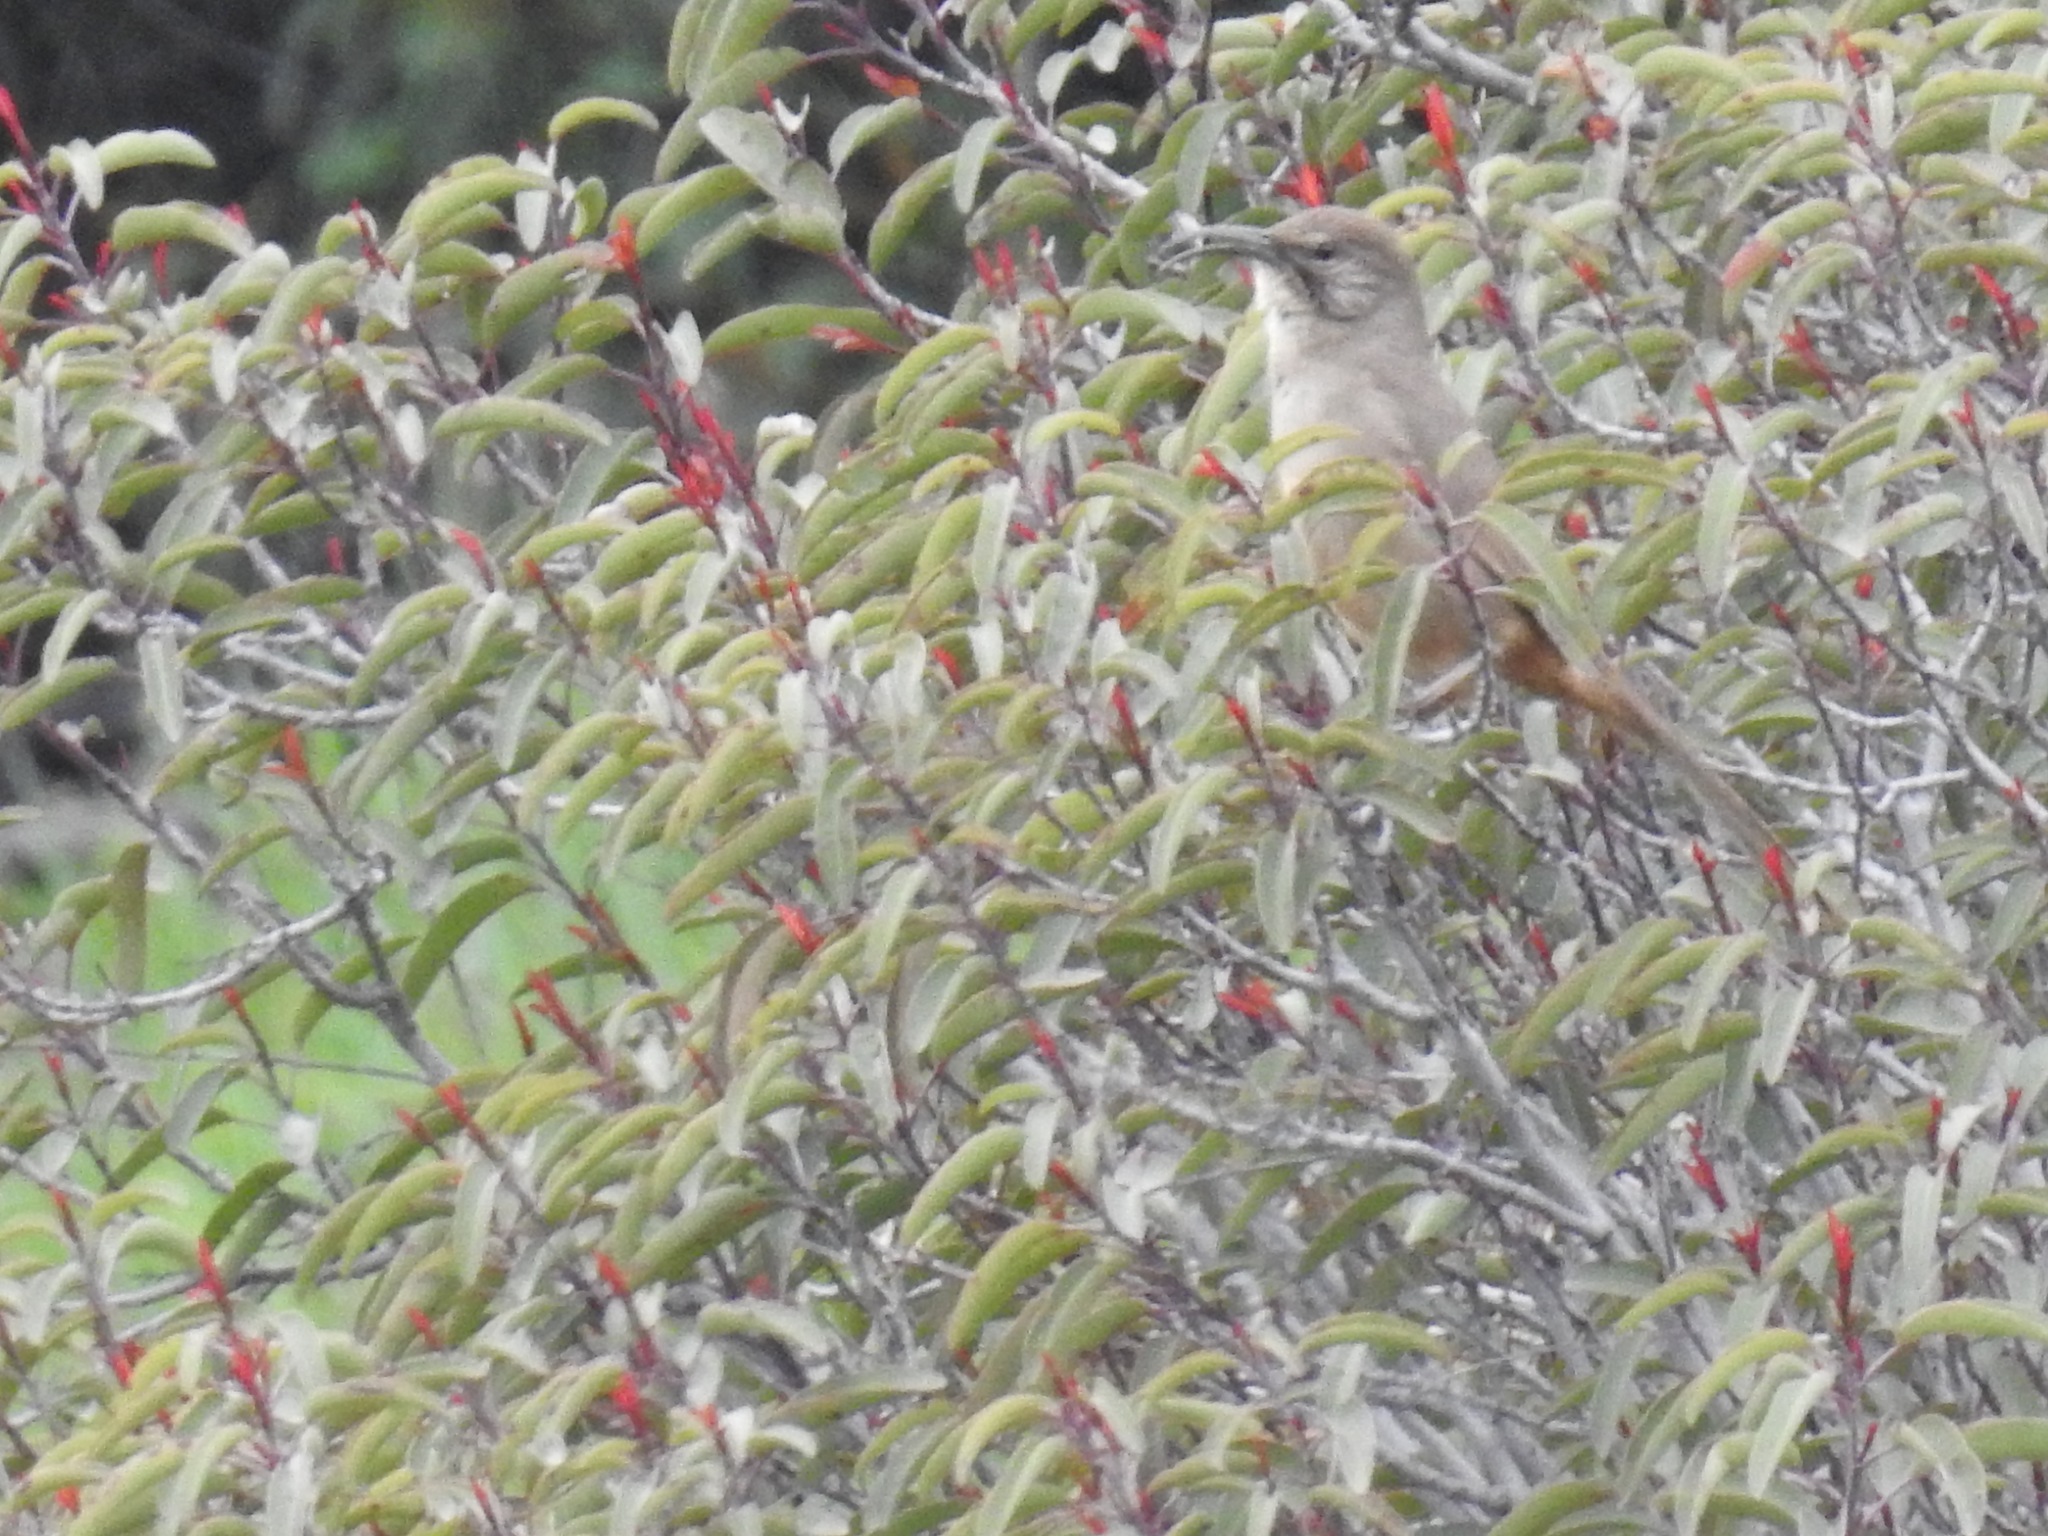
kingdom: Animalia
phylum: Chordata
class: Aves
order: Passeriformes
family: Mimidae
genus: Toxostoma
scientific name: Toxostoma redivivum
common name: California thrasher
